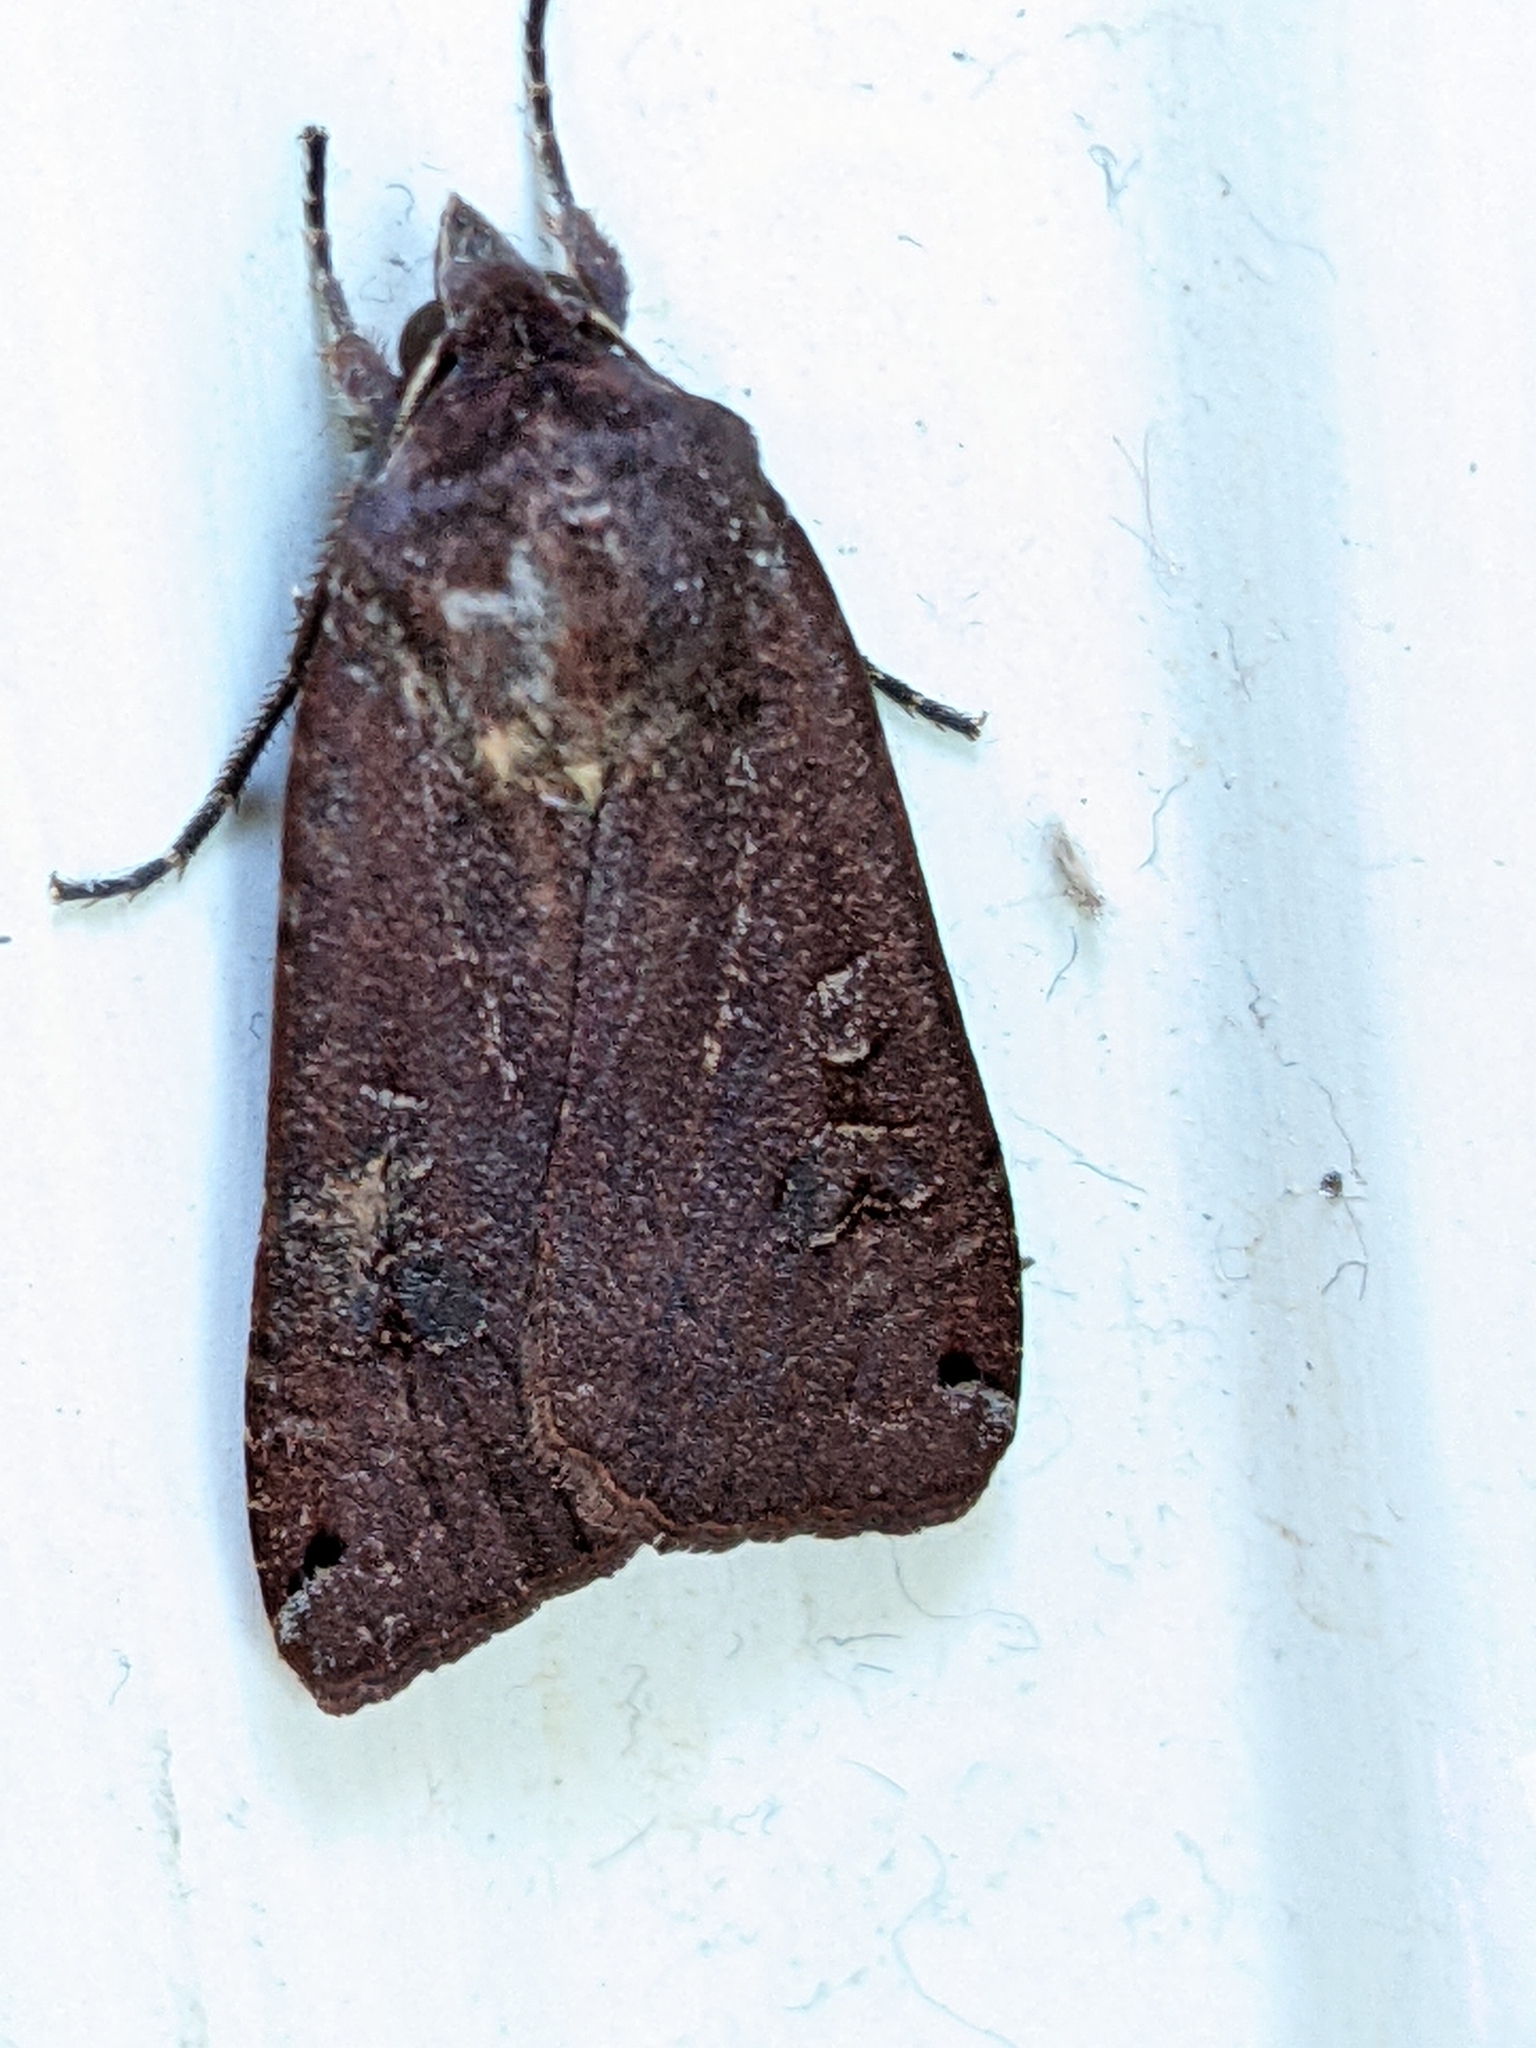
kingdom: Animalia
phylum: Arthropoda
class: Insecta
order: Lepidoptera
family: Noctuidae
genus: Noctua
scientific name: Noctua pronuba
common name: Large yellow underwing
